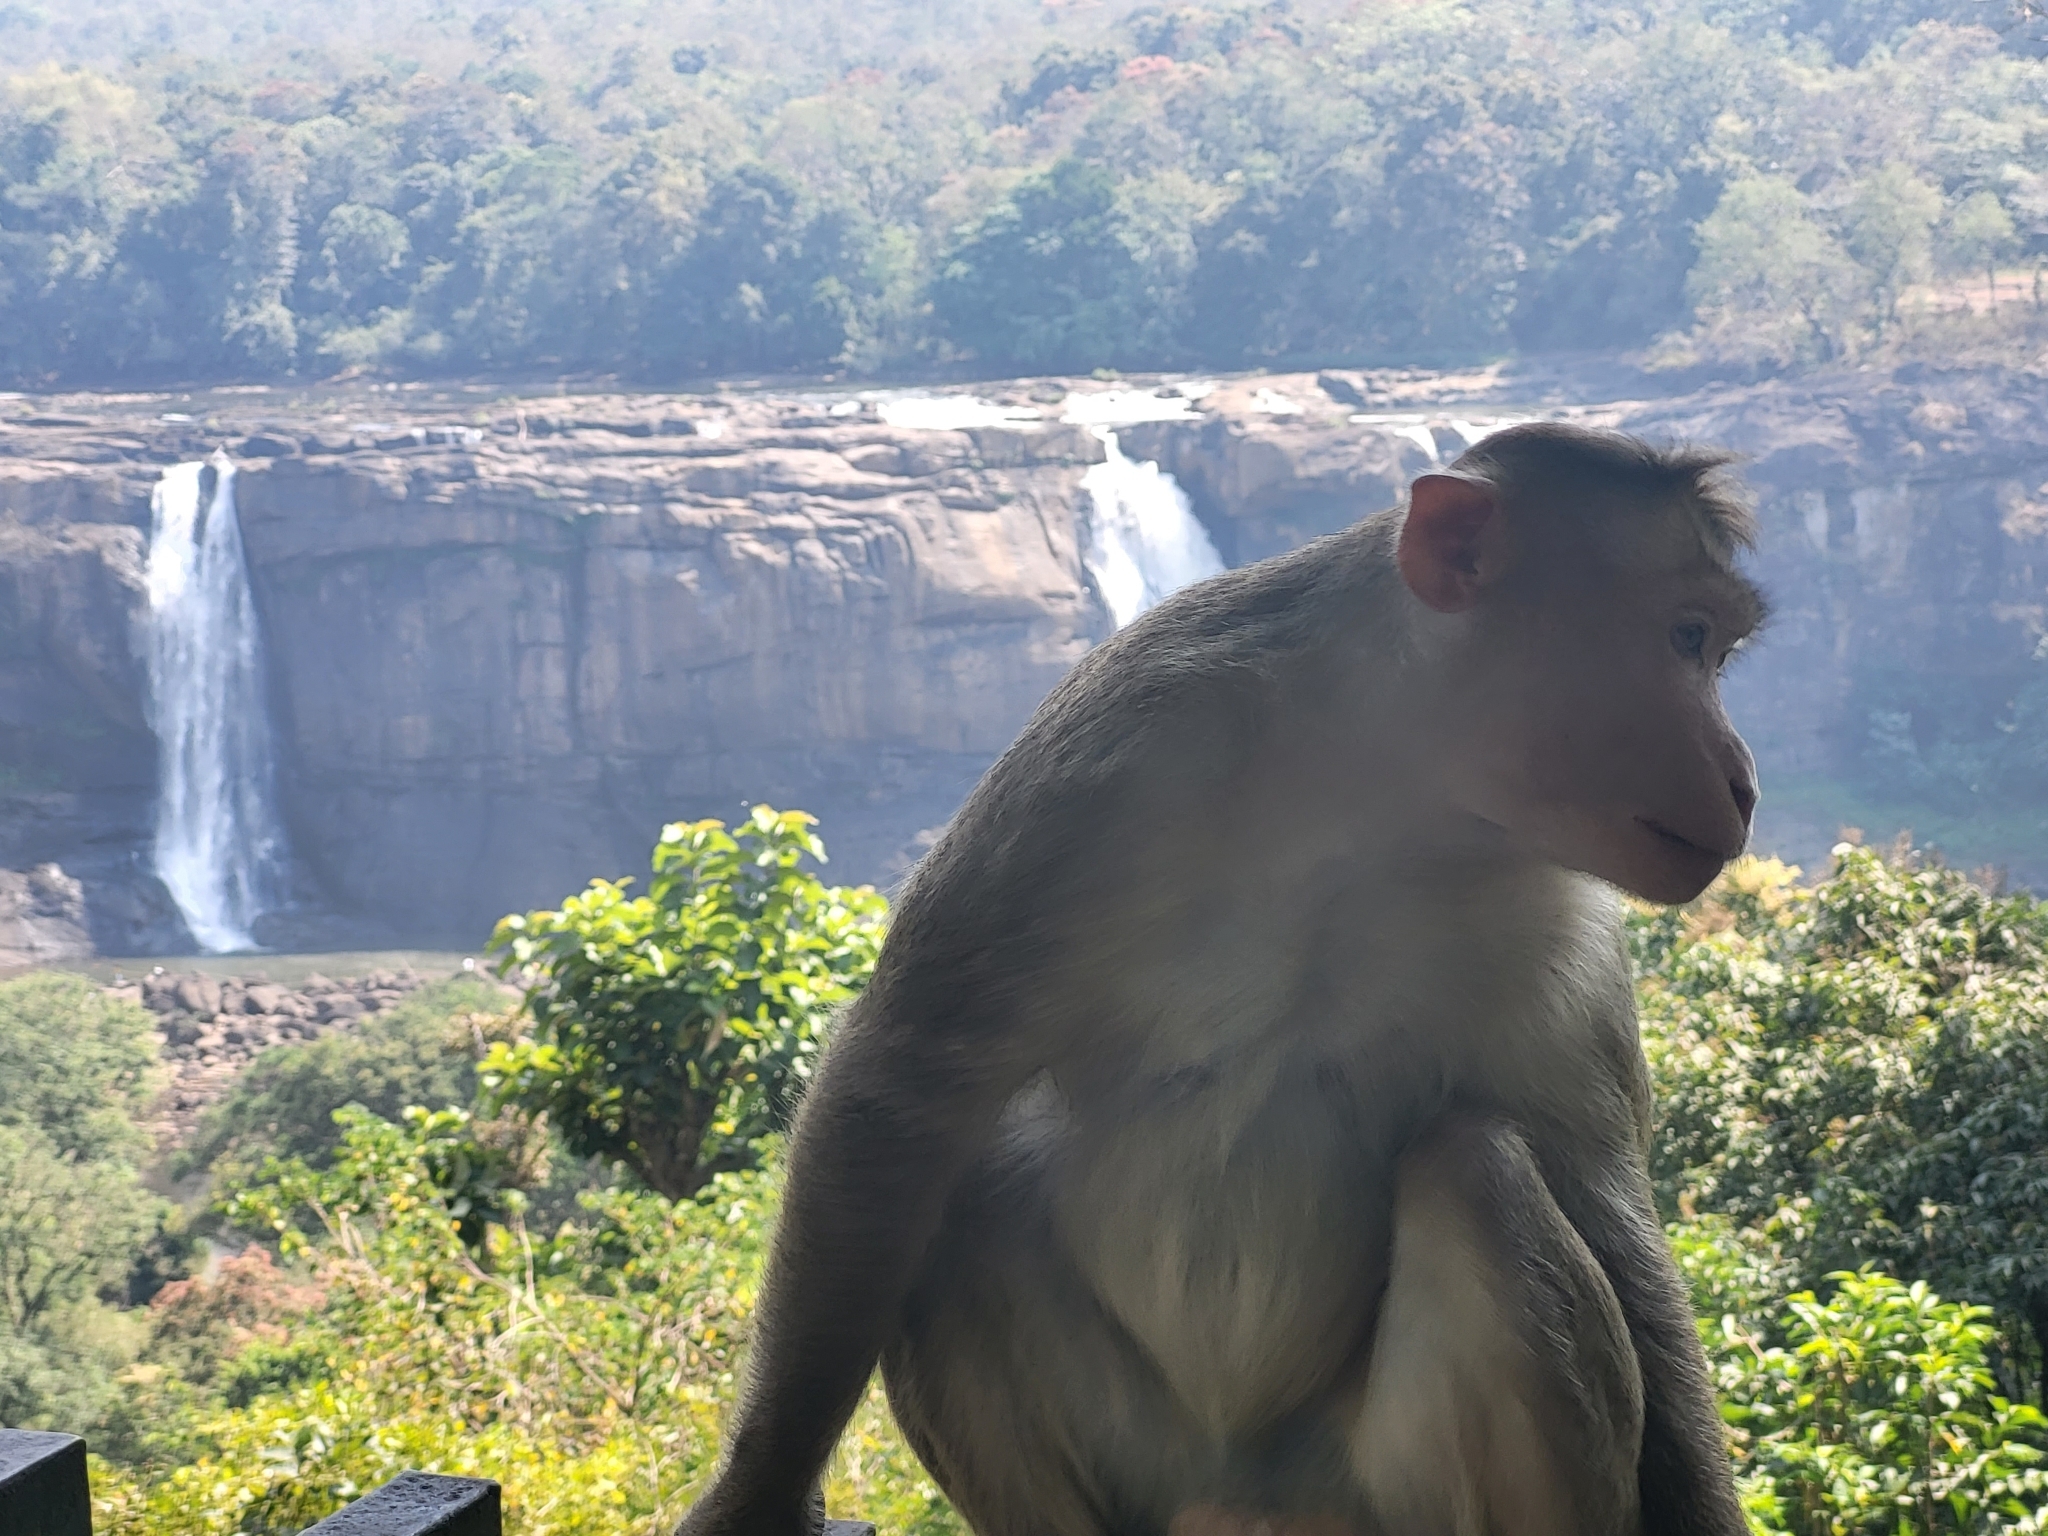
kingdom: Animalia
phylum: Chordata
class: Mammalia
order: Primates
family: Cercopithecidae
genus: Macaca
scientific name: Macaca radiata
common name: Bonnet macaque
